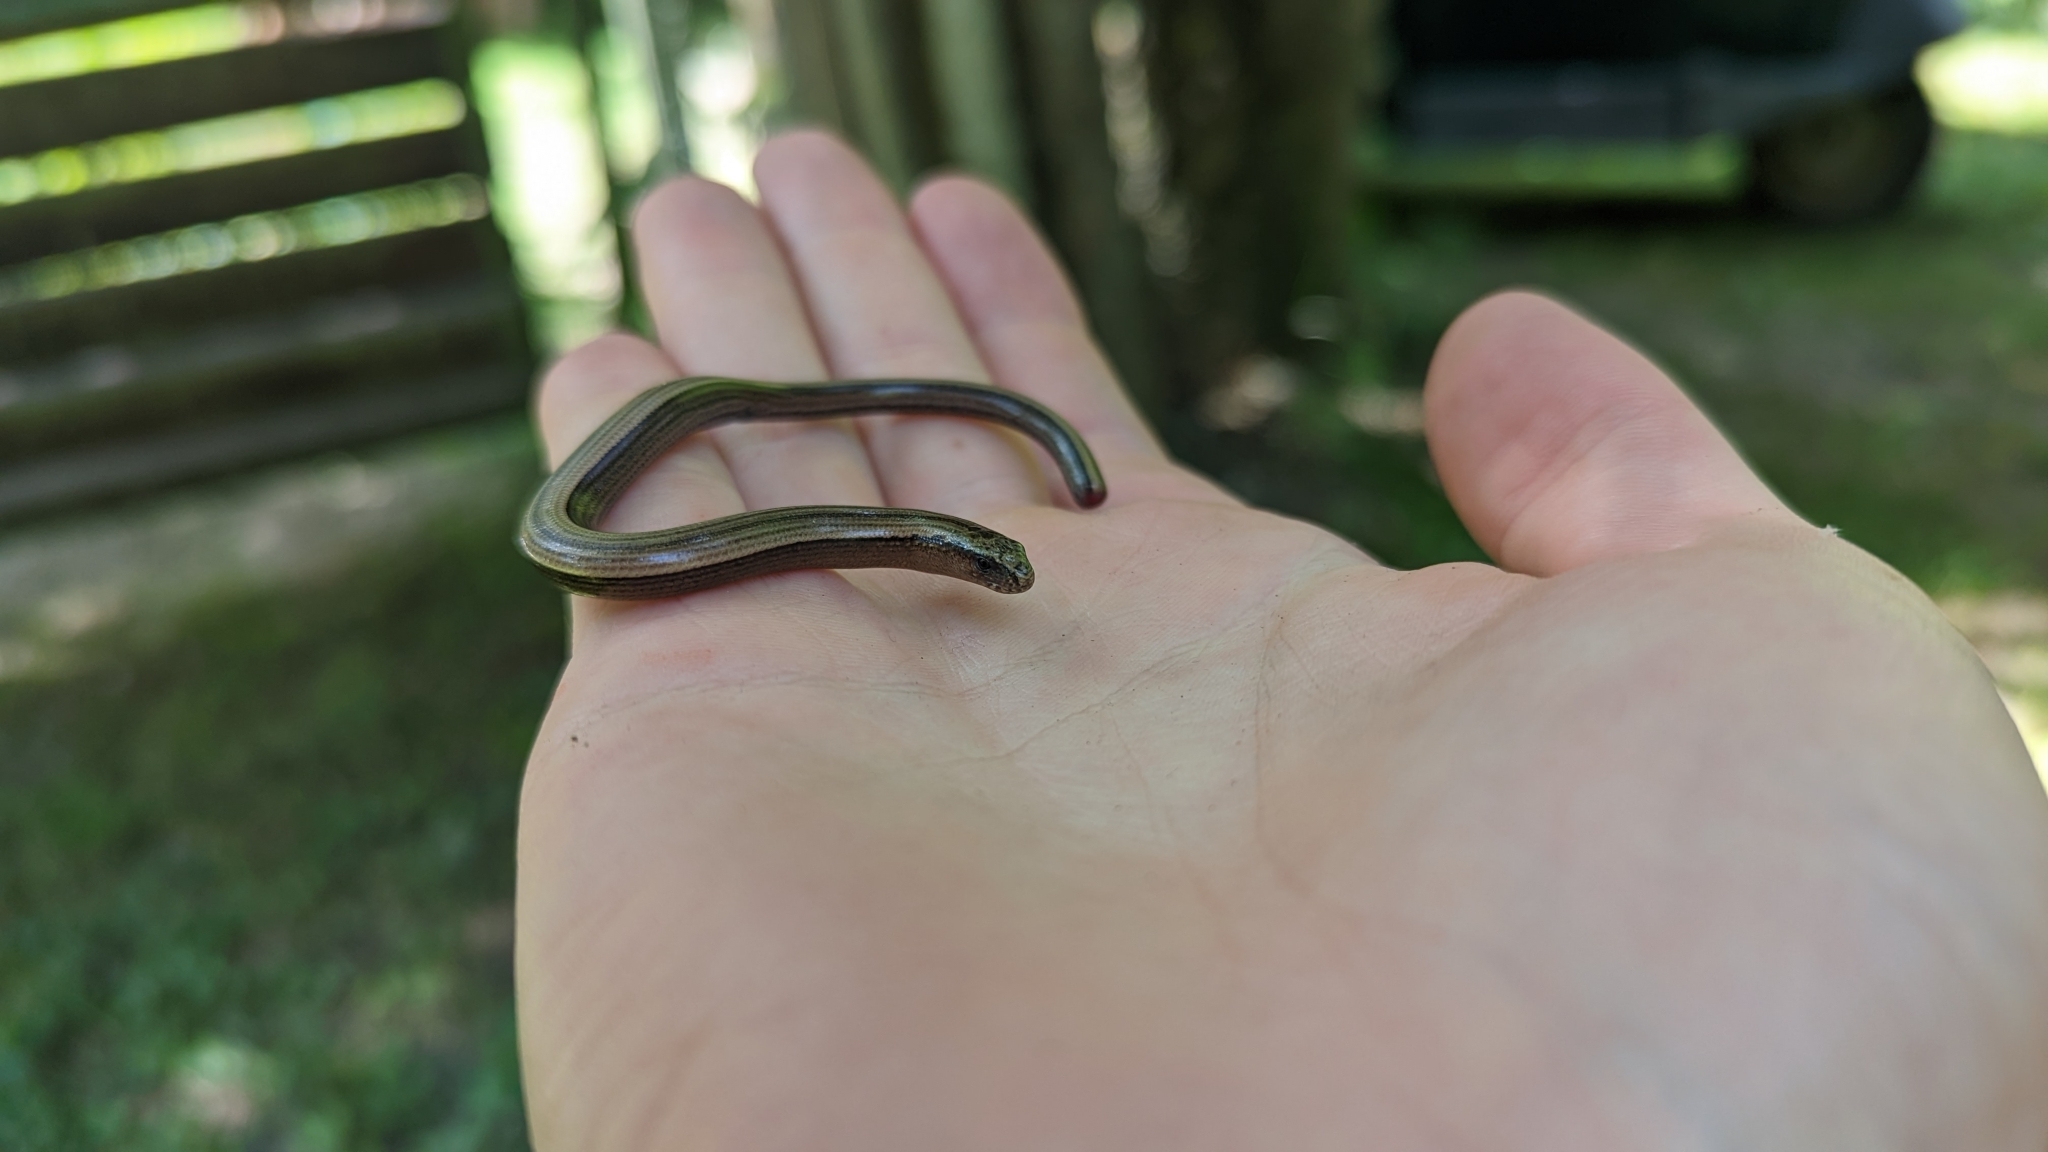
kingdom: Animalia
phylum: Chordata
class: Squamata
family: Anguidae
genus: Anguis
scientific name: Anguis veronensis
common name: Italian slow worm
